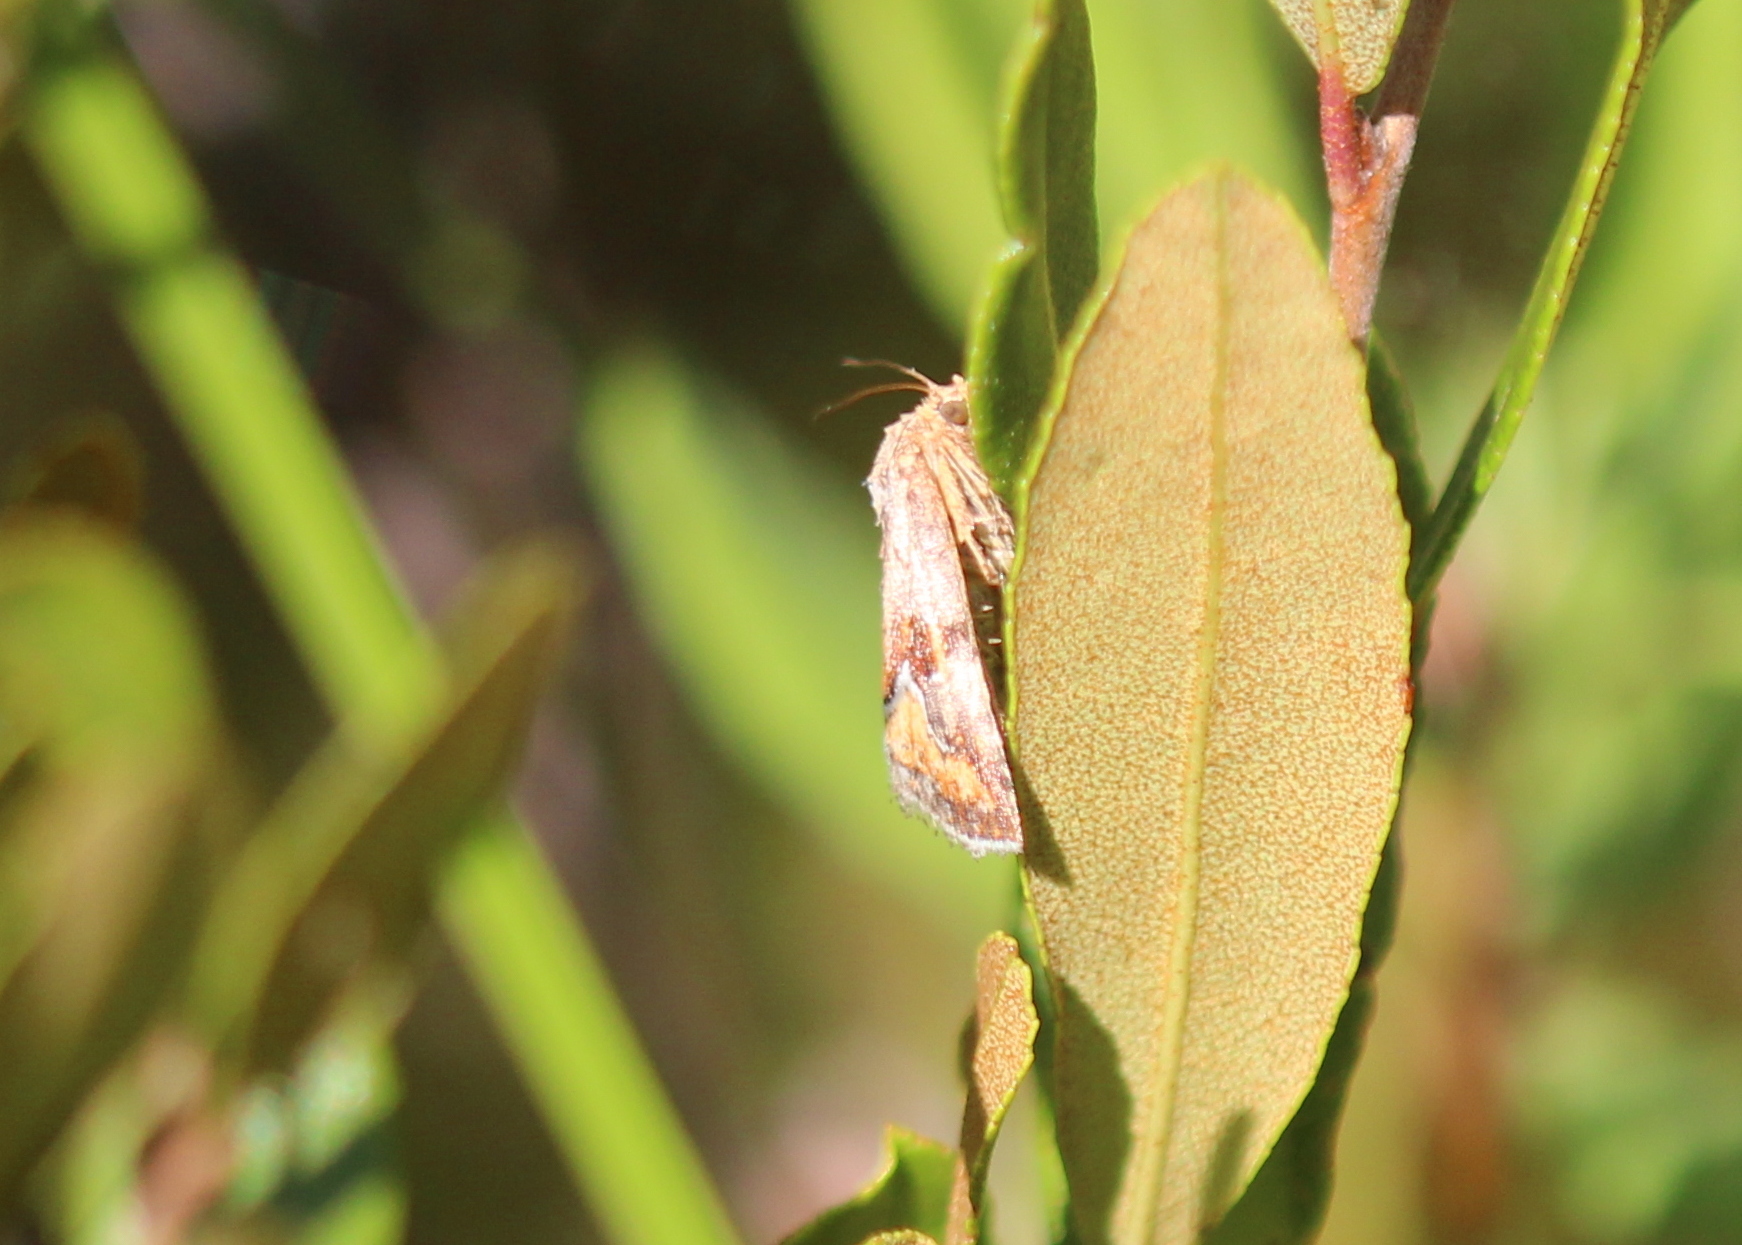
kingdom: Animalia
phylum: Arthropoda
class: Insecta
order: Lepidoptera
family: Noctuidae
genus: Deltote
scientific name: Deltote bellicula
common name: Bog glyph
